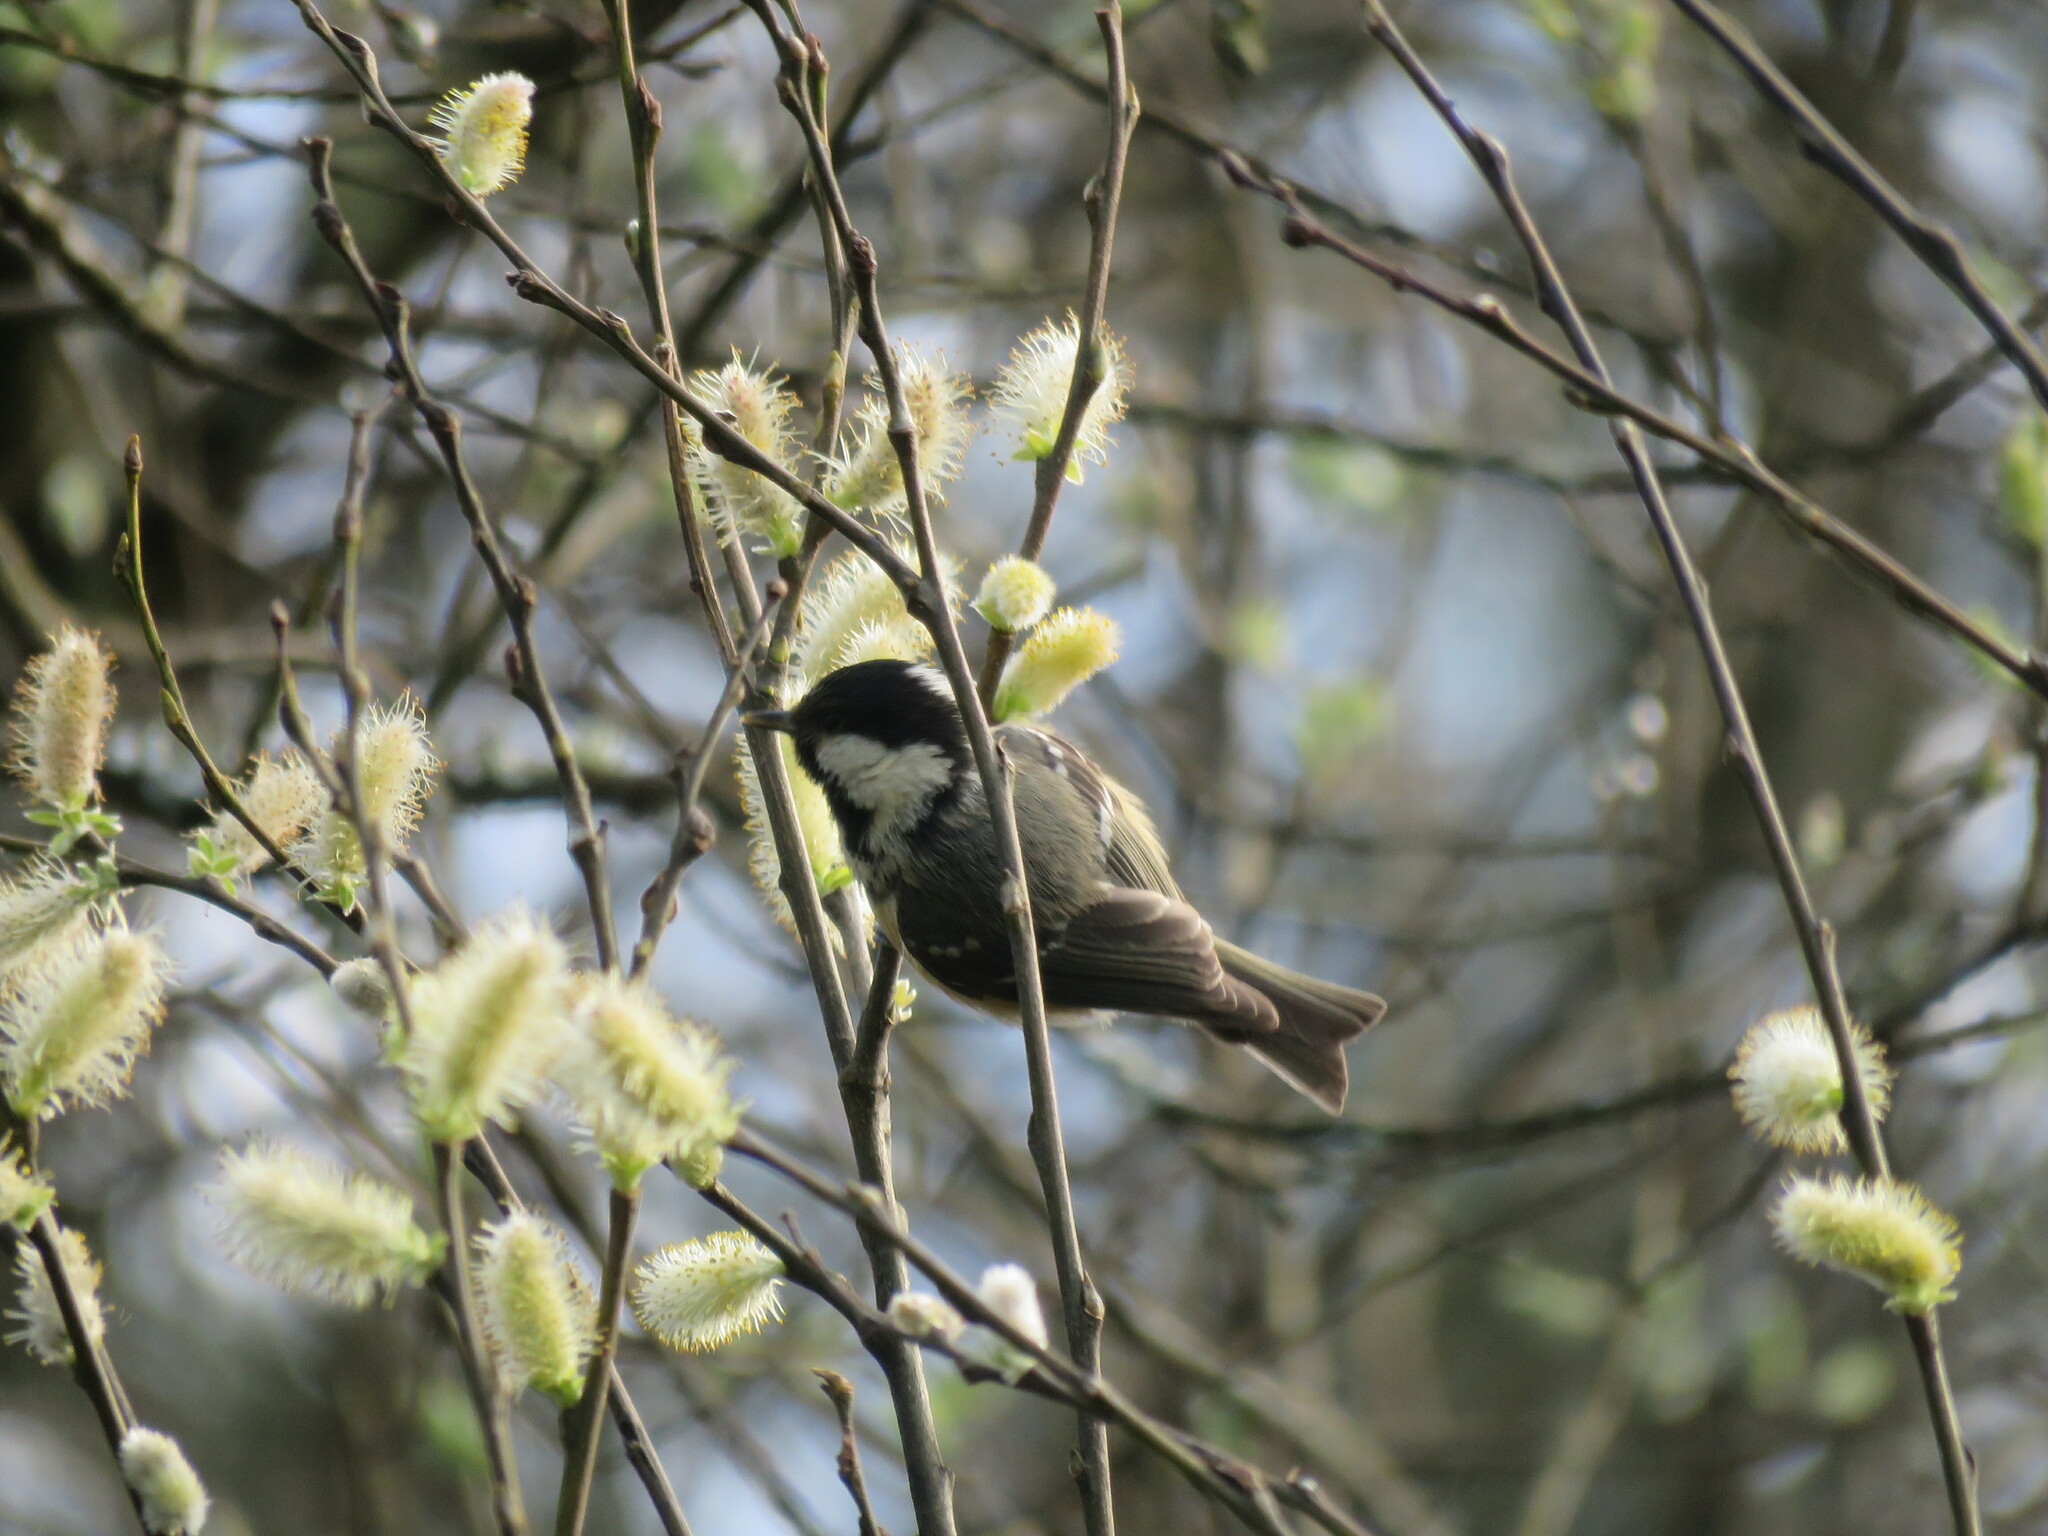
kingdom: Animalia
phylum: Chordata
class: Aves
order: Passeriformes
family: Paridae
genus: Periparus
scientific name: Periparus ater
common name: Coal tit
